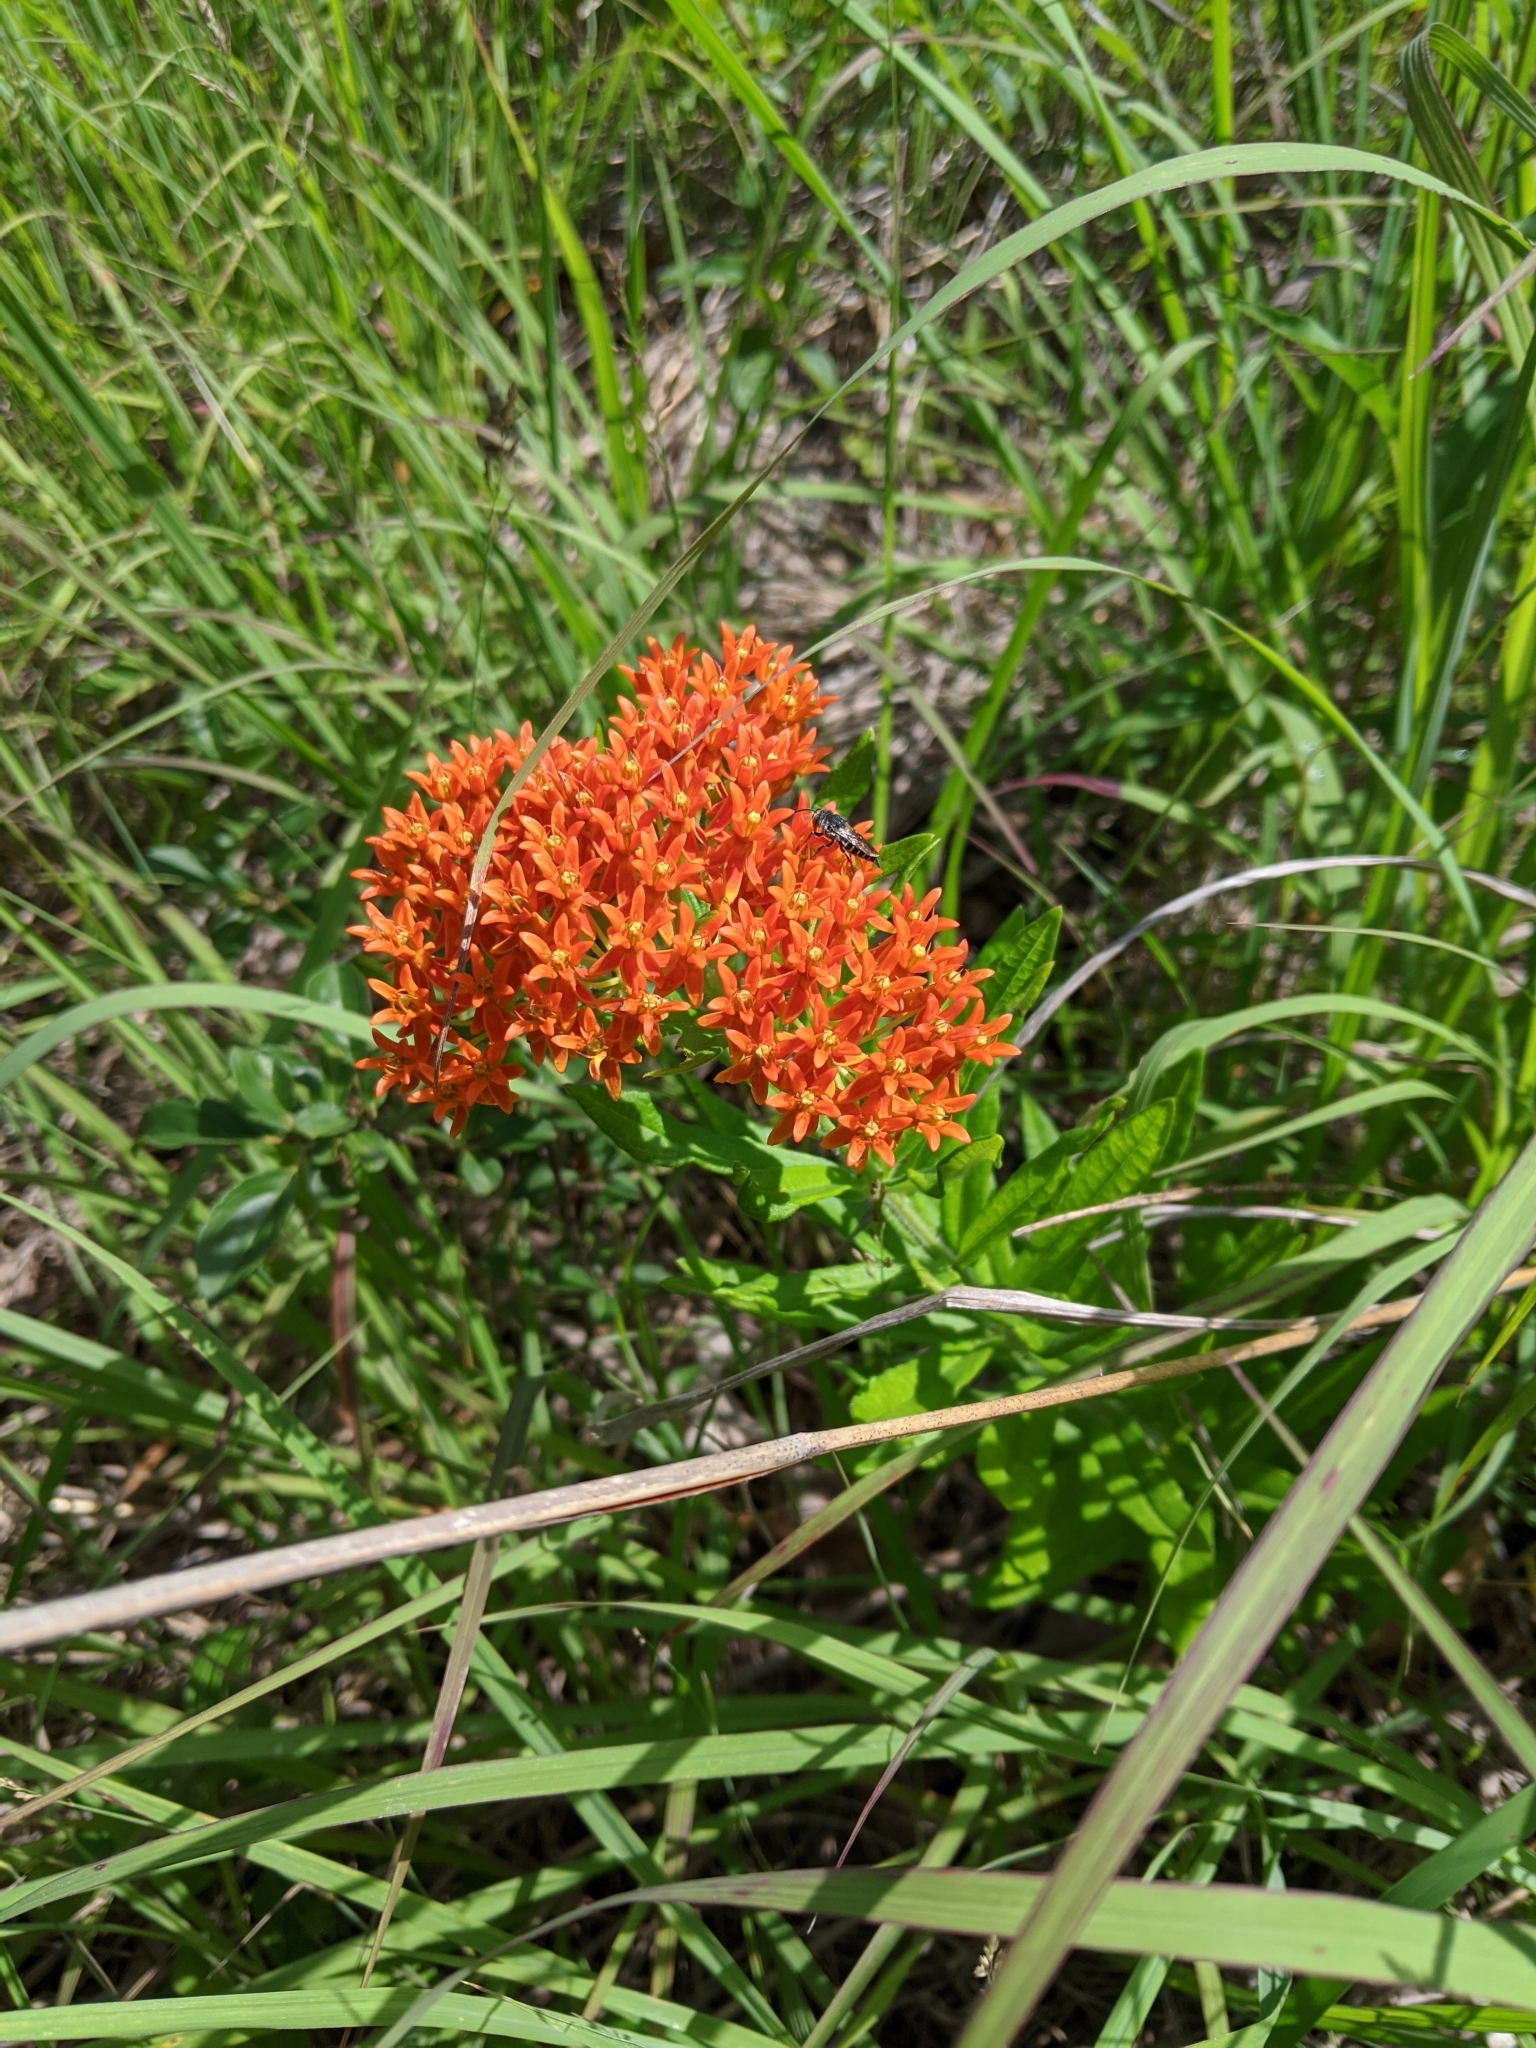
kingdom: Plantae
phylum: Tracheophyta
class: Magnoliopsida
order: Gentianales
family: Apocynaceae
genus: Asclepias
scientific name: Asclepias tuberosa
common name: Butterfly milkweed
